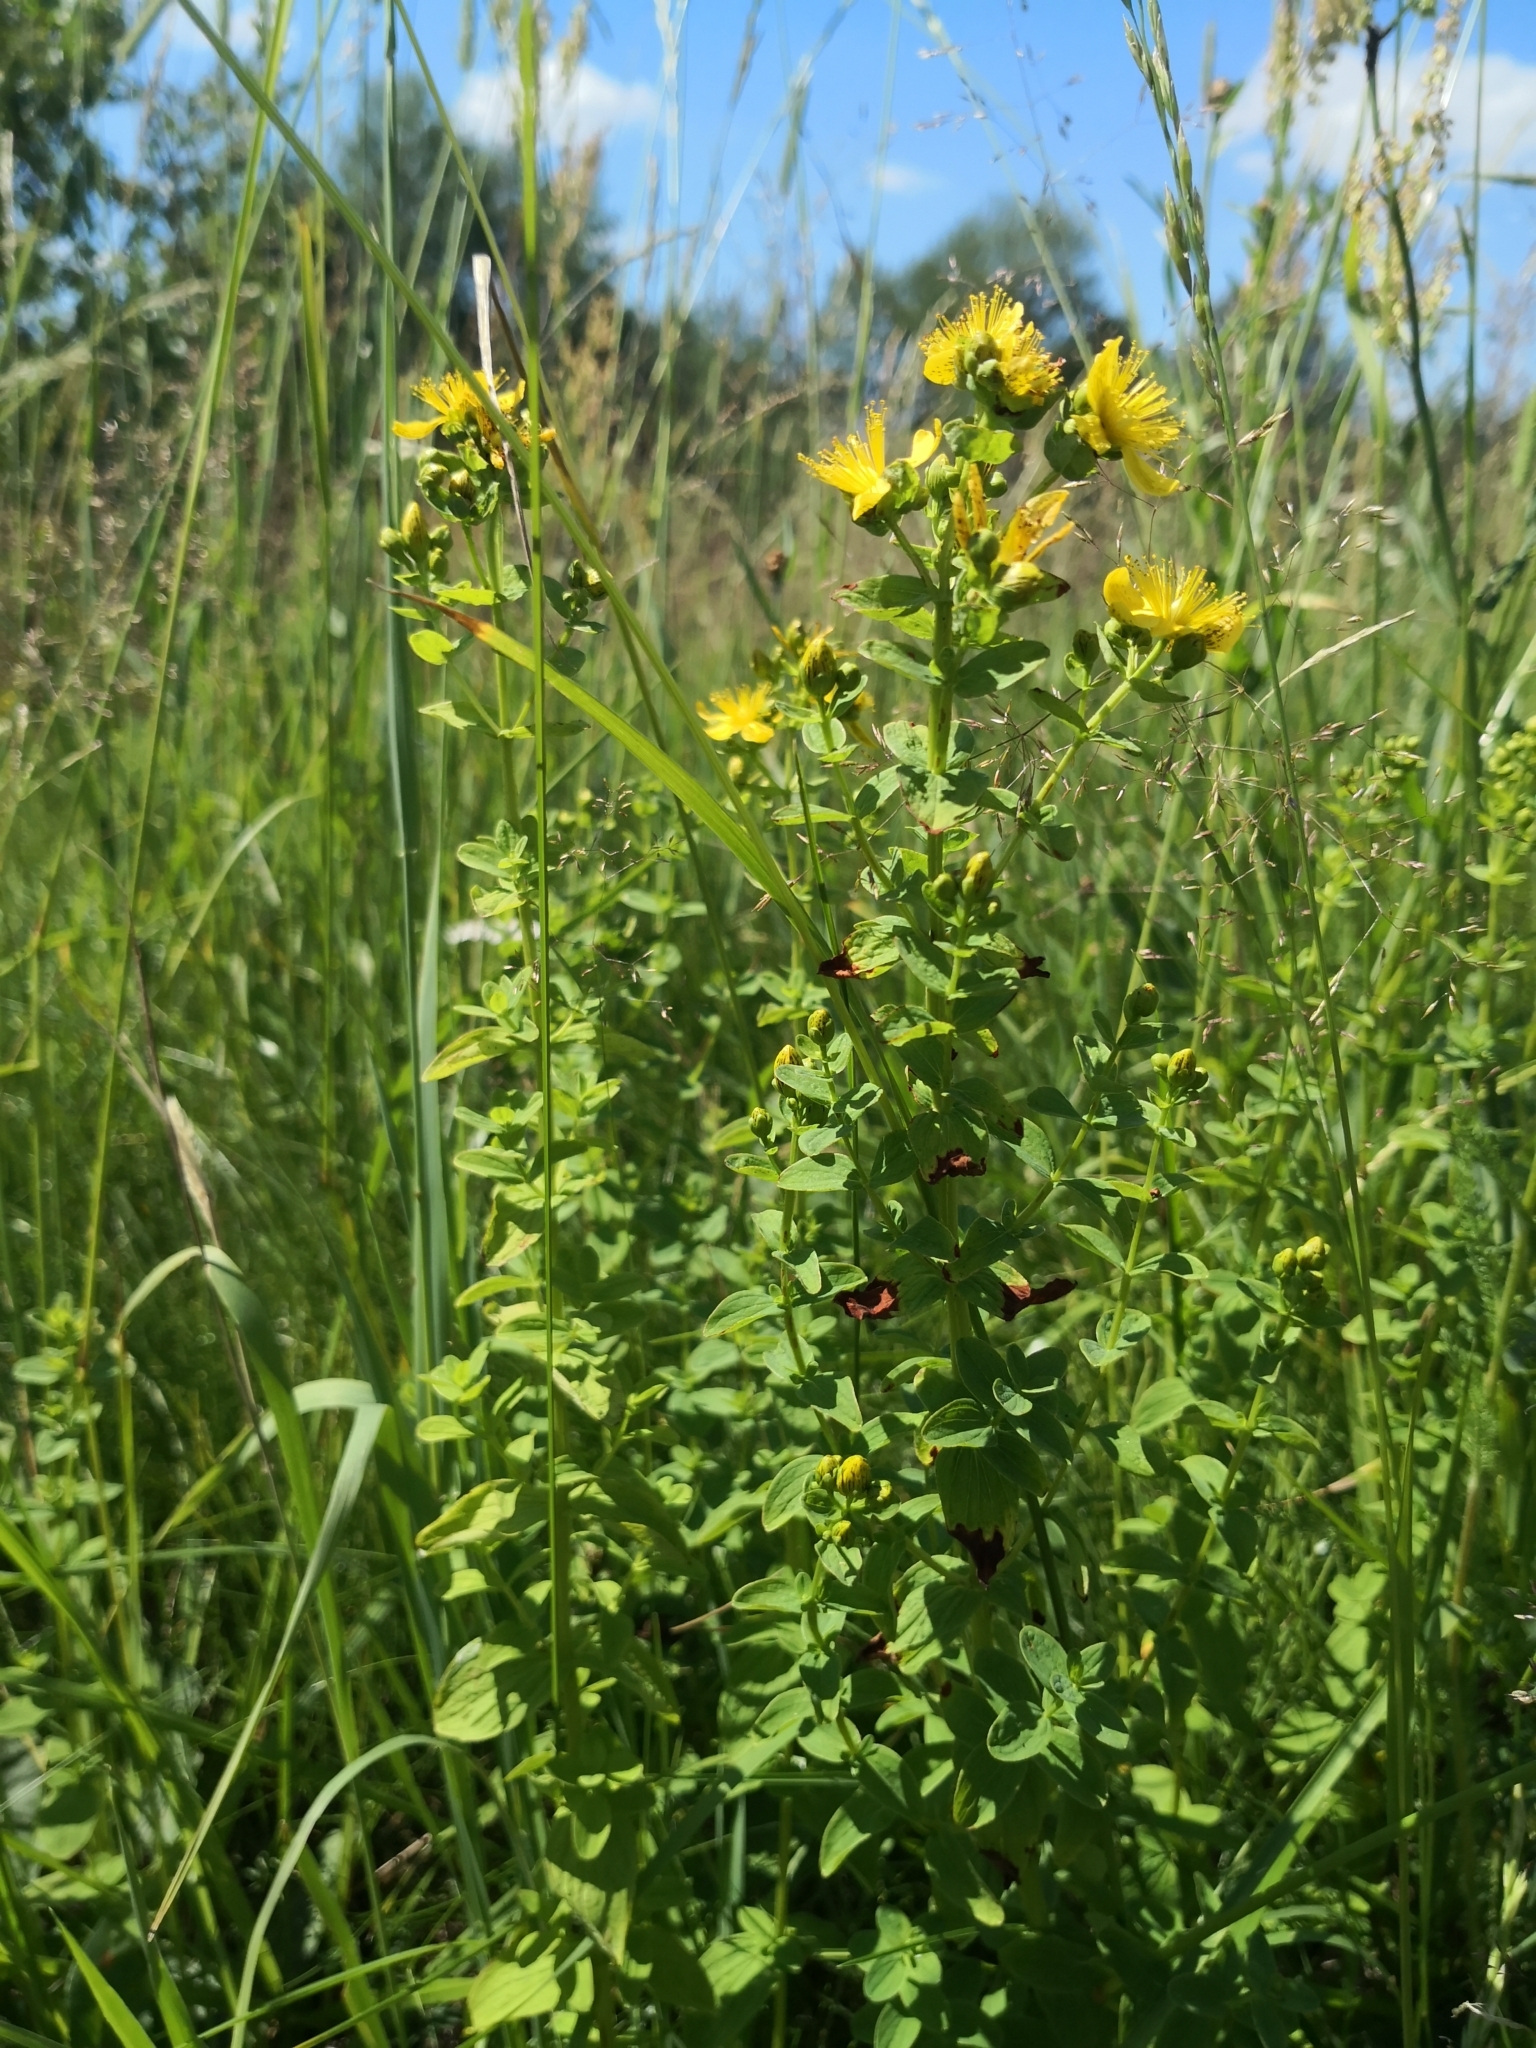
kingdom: Plantae
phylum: Tracheophyta
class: Magnoliopsida
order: Malpighiales
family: Hypericaceae
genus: Hypericum
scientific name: Hypericum maculatum
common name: Imperforate st. john's-wort
